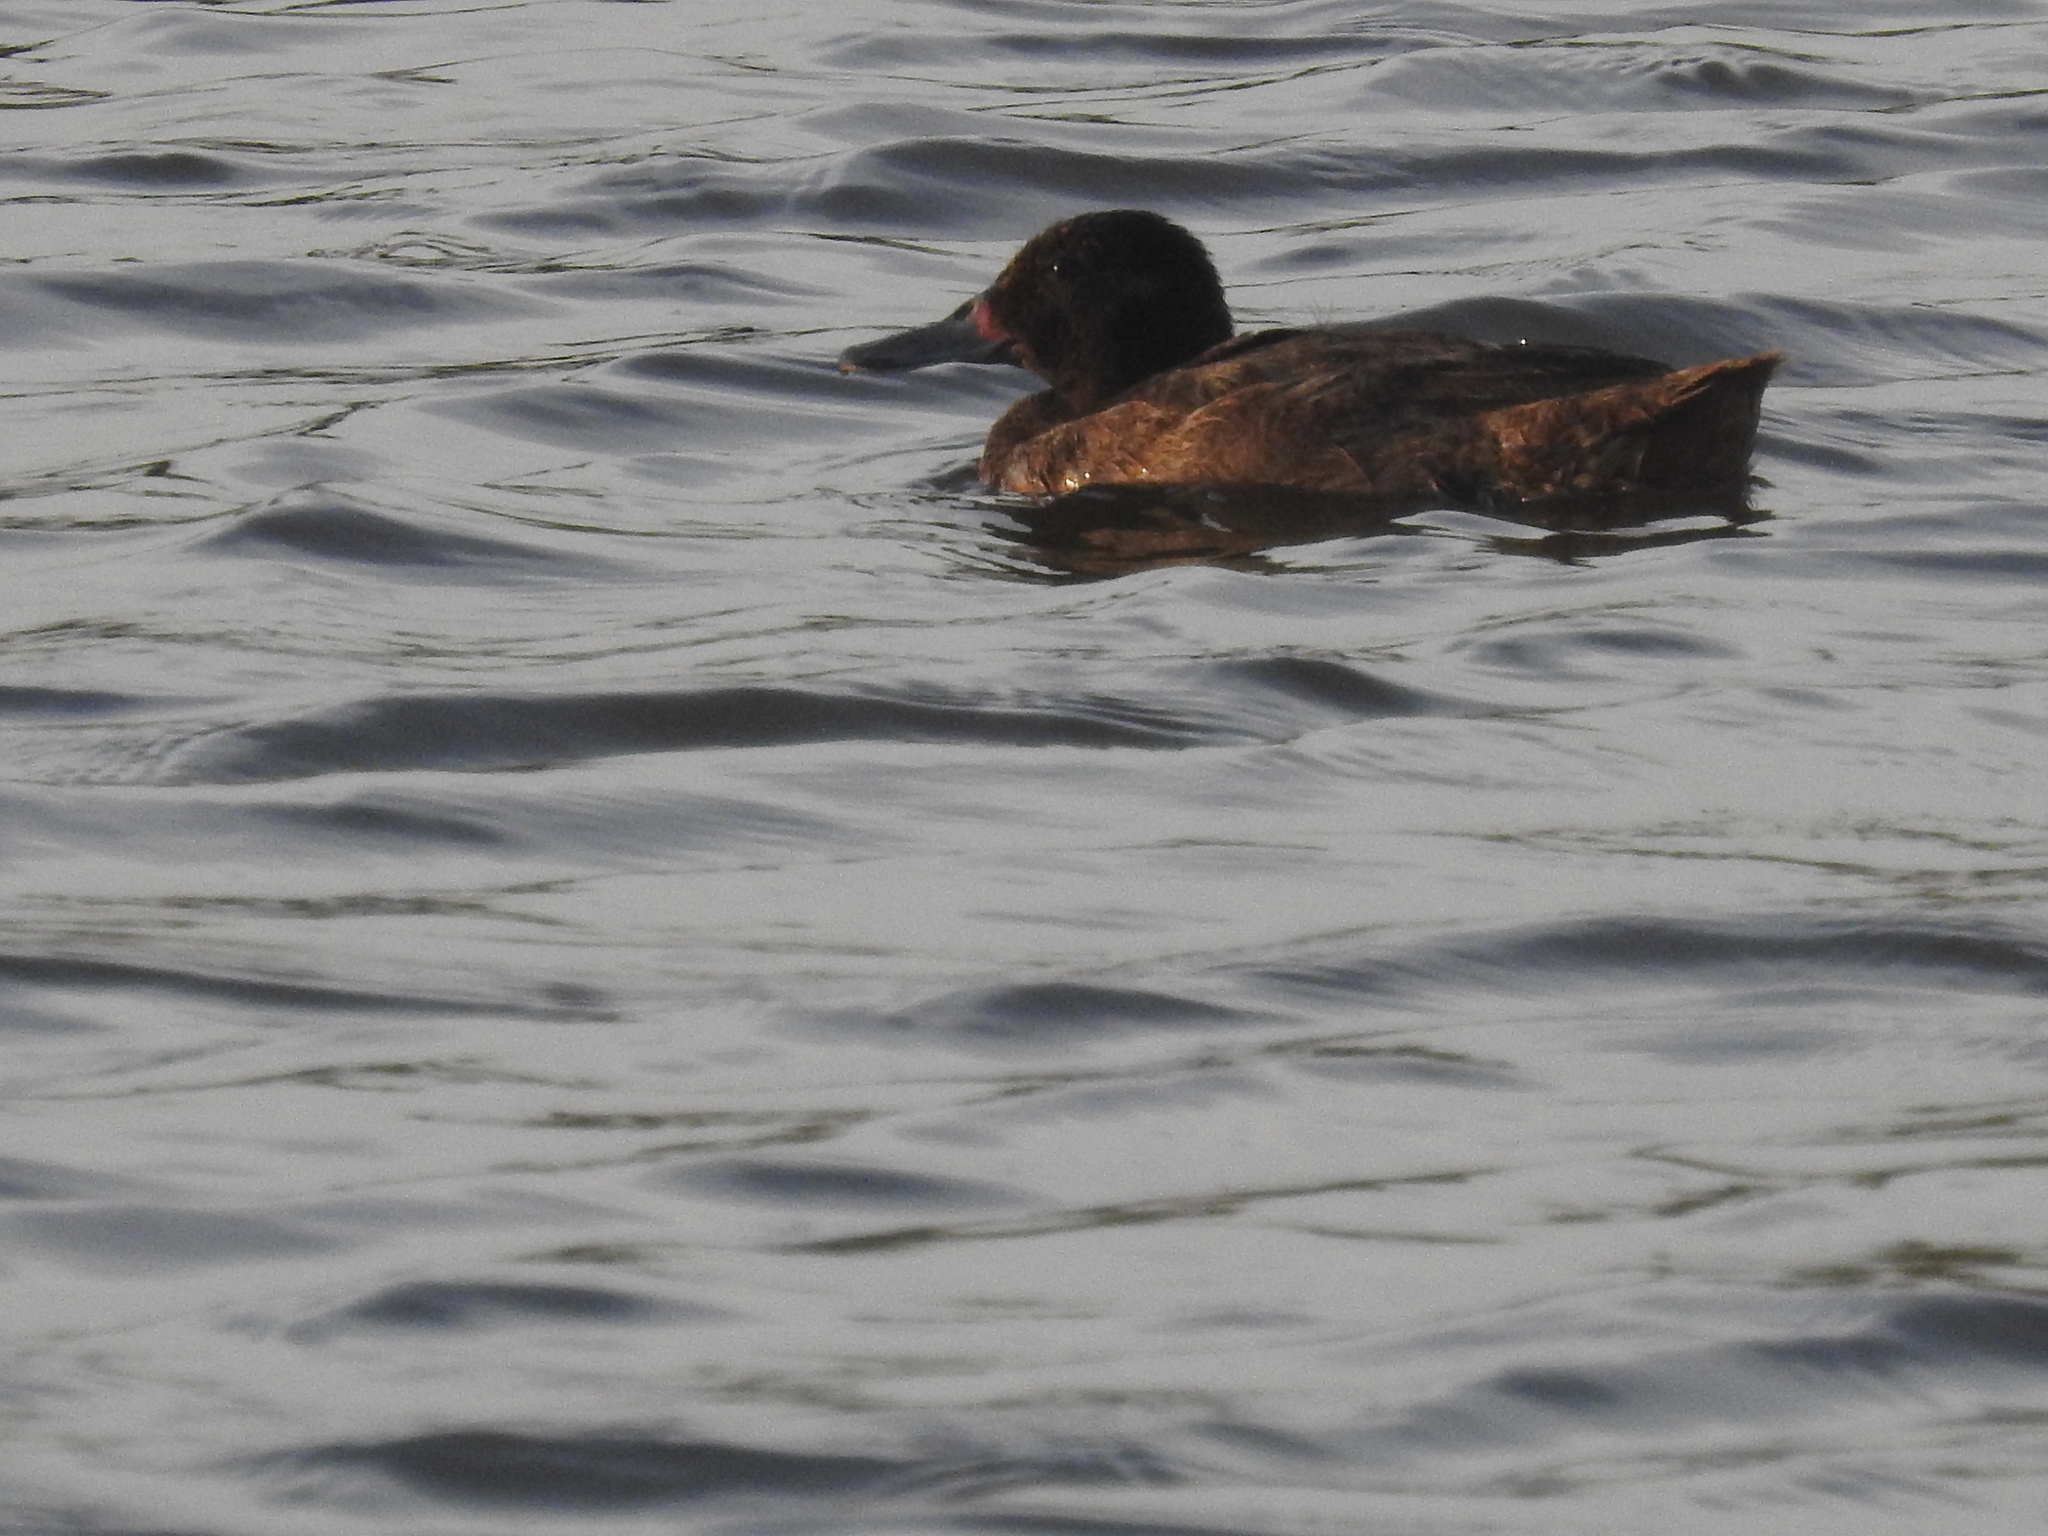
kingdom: Animalia
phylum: Chordata
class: Aves
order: Anseriformes
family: Anatidae
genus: Heteronetta
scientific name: Heteronetta atricapilla
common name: Black-headed duck
